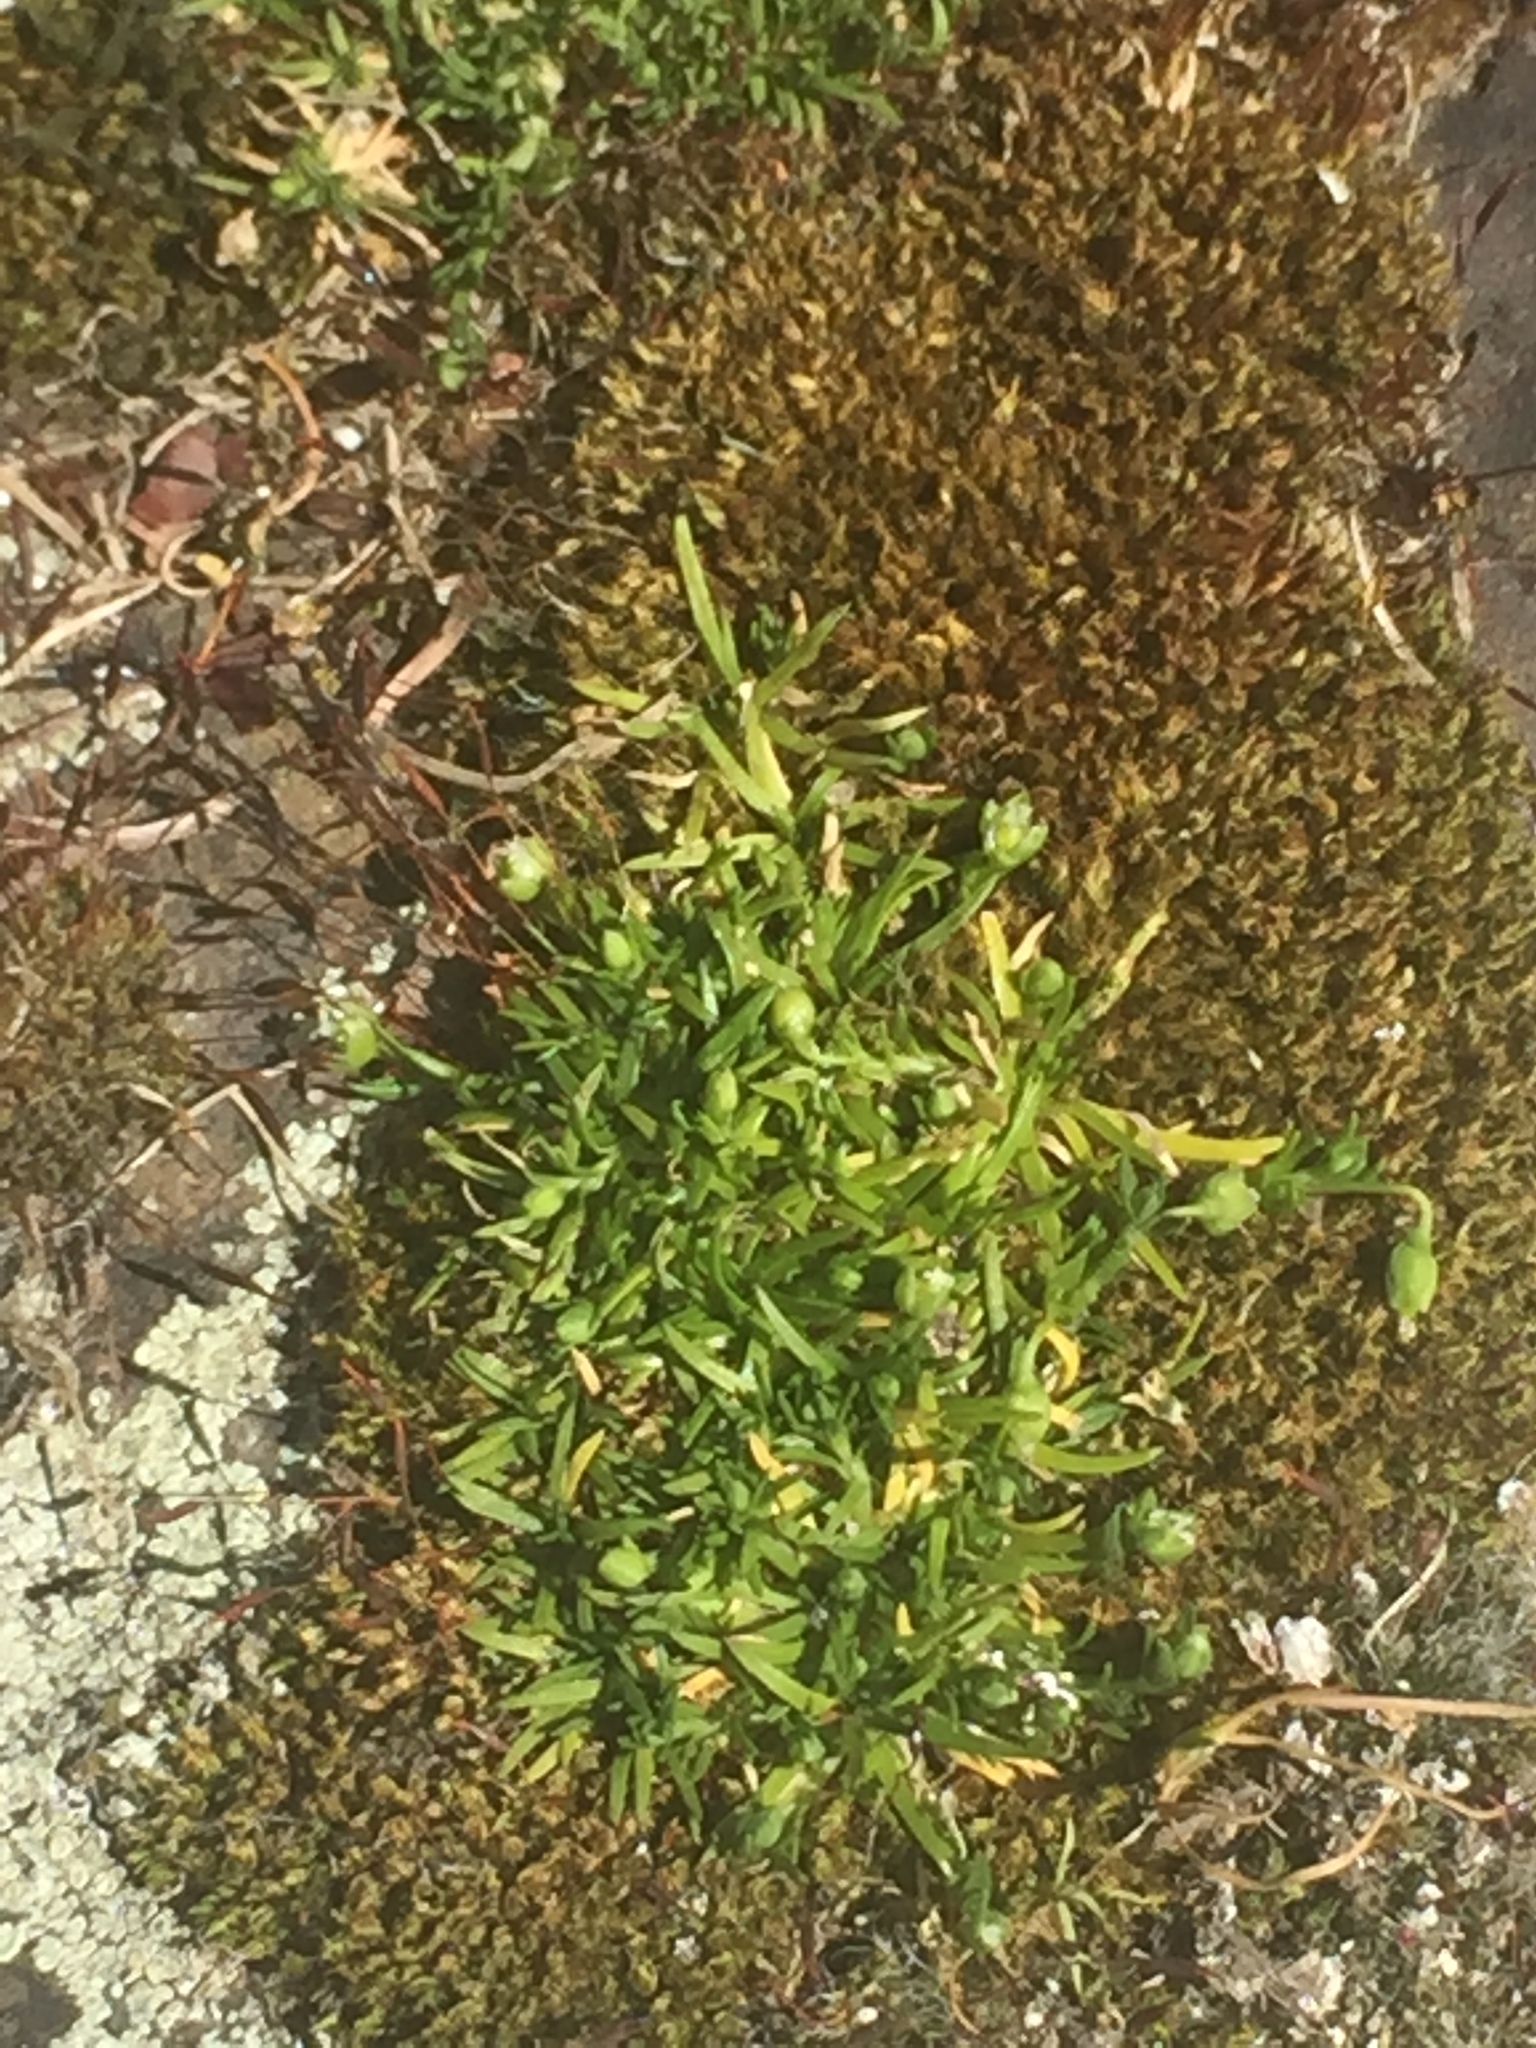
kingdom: Plantae
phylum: Tracheophyta
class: Magnoliopsida
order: Caryophyllales
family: Caryophyllaceae
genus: Sagina
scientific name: Sagina procumbens
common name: Procumbent pearlwort
